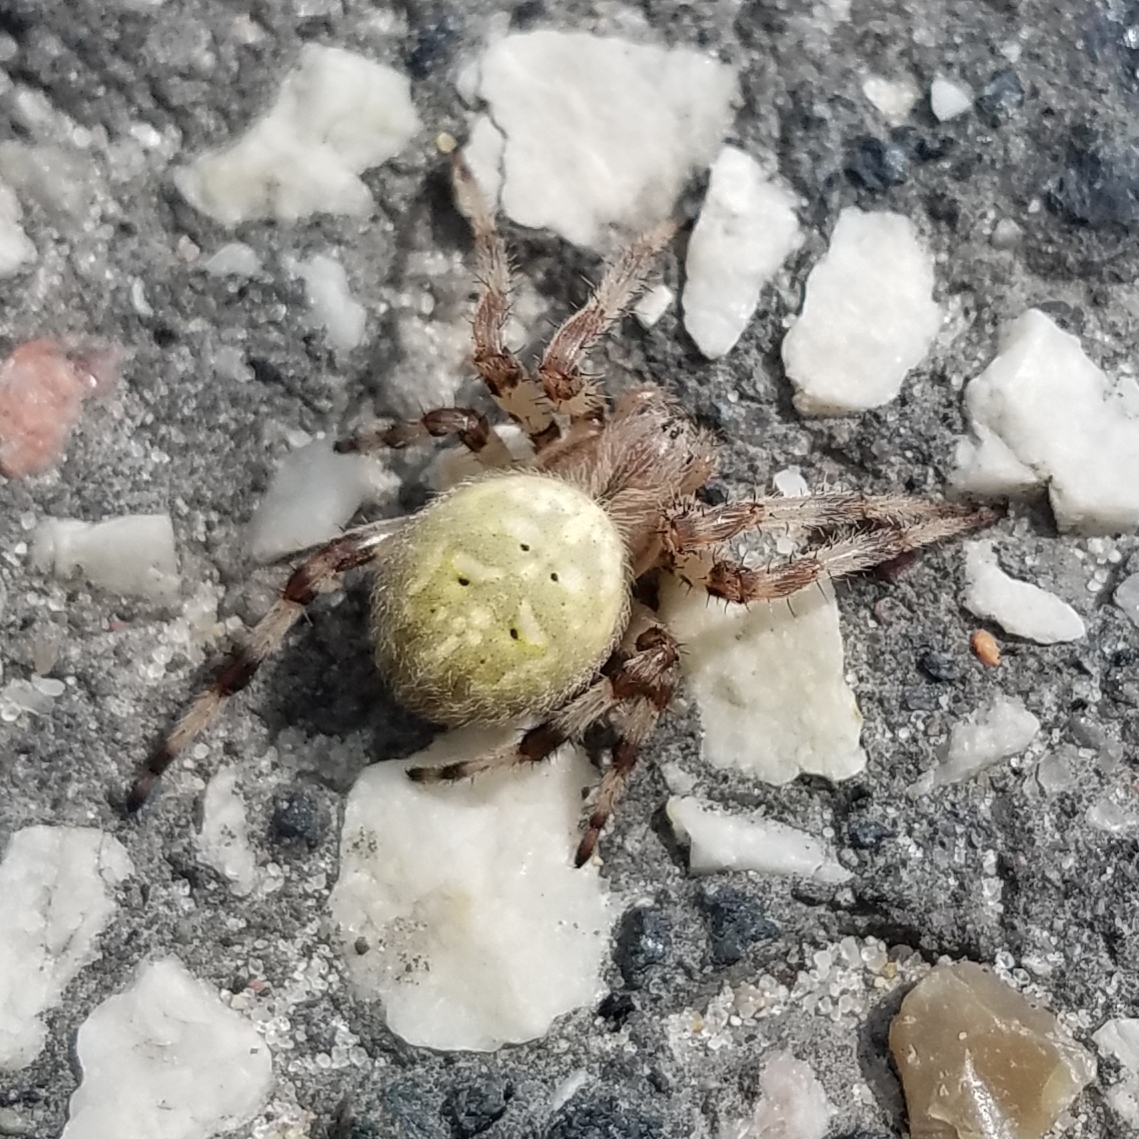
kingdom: Animalia
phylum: Arthropoda
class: Arachnida
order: Araneae
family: Araneidae
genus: Araneus
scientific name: Araneus quadratus
